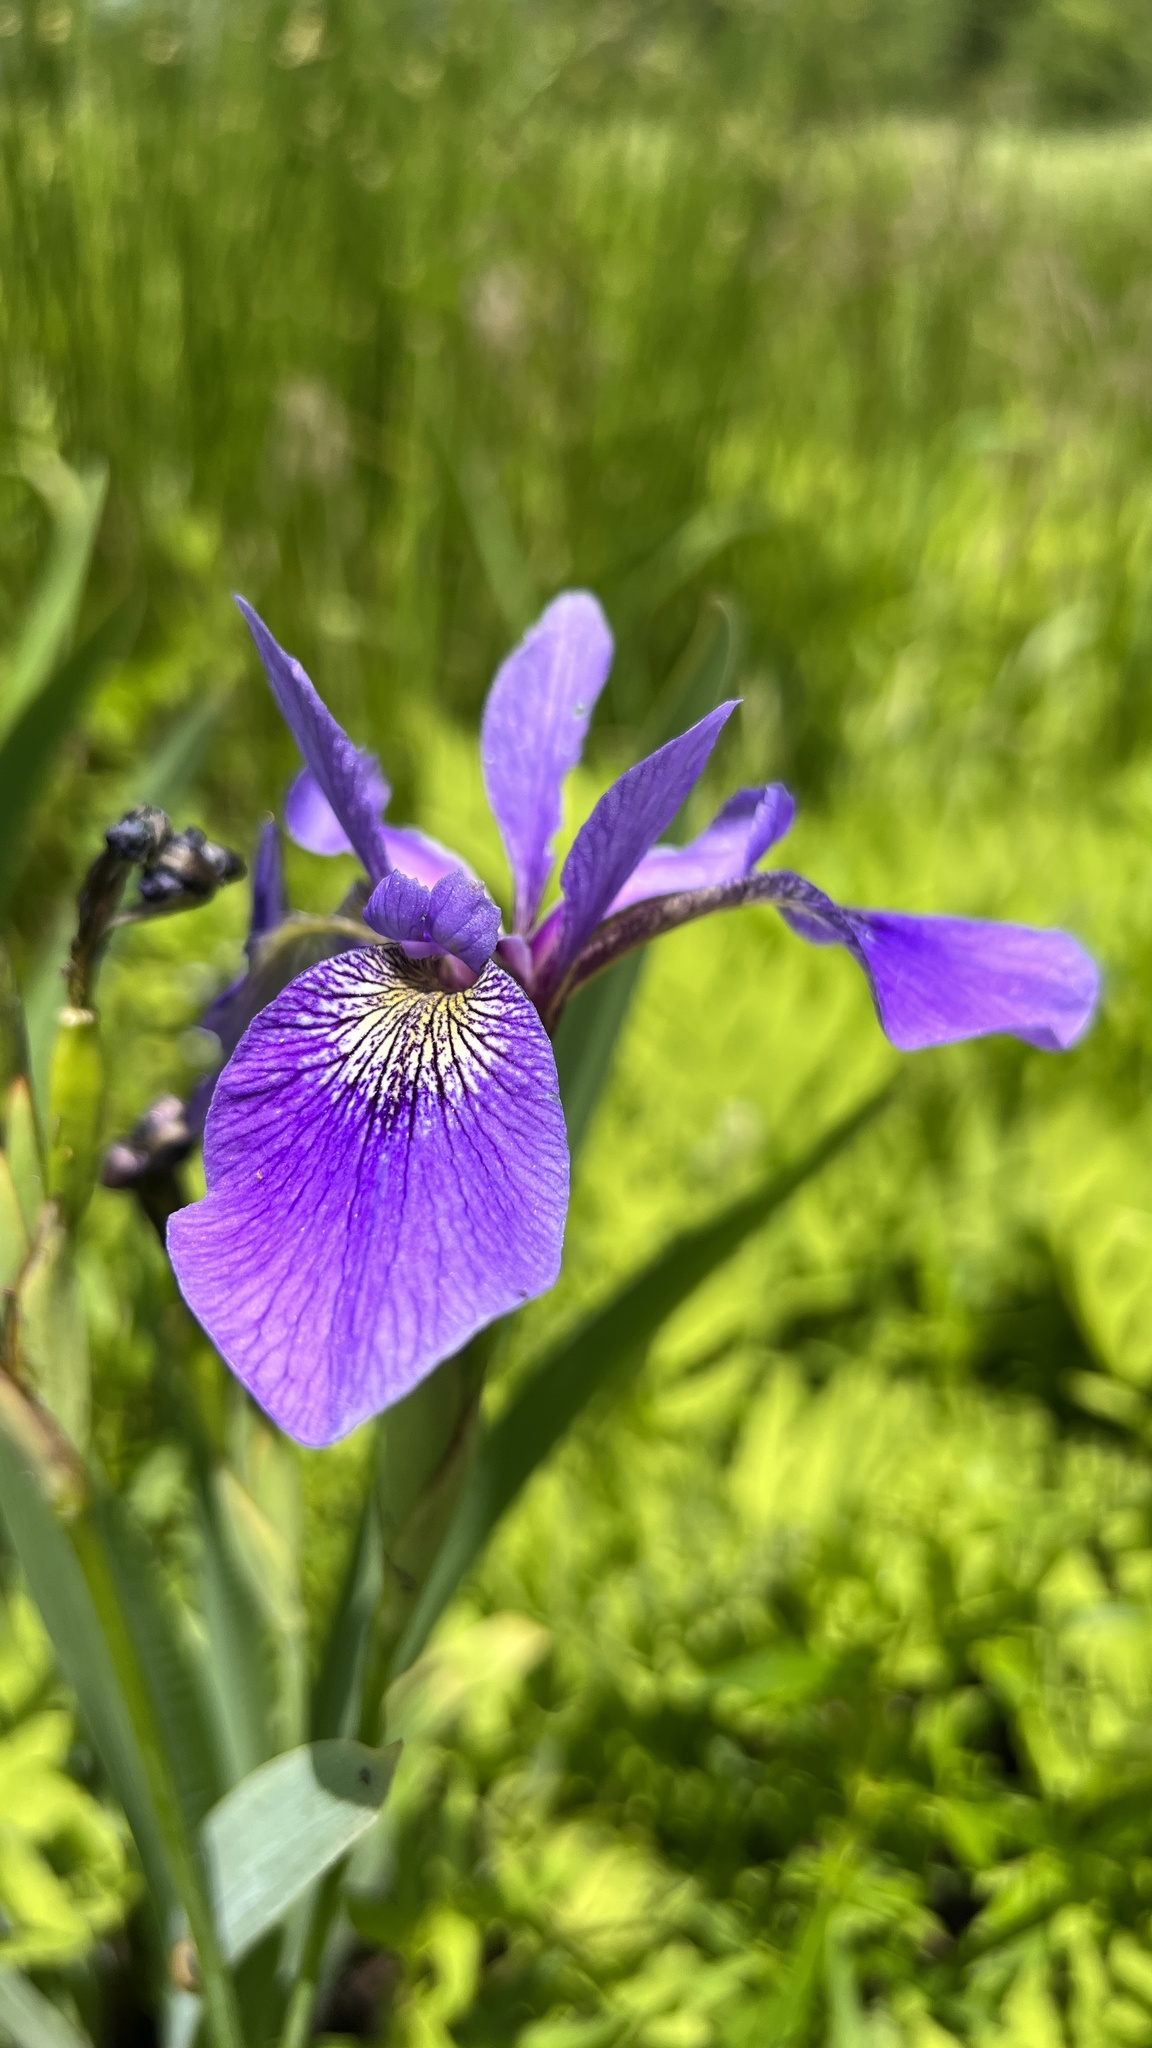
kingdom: Plantae
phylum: Tracheophyta
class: Liliopsida
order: Asparagales
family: Iridaceae
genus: Iris
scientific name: Iris versicolor
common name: Purple iris
